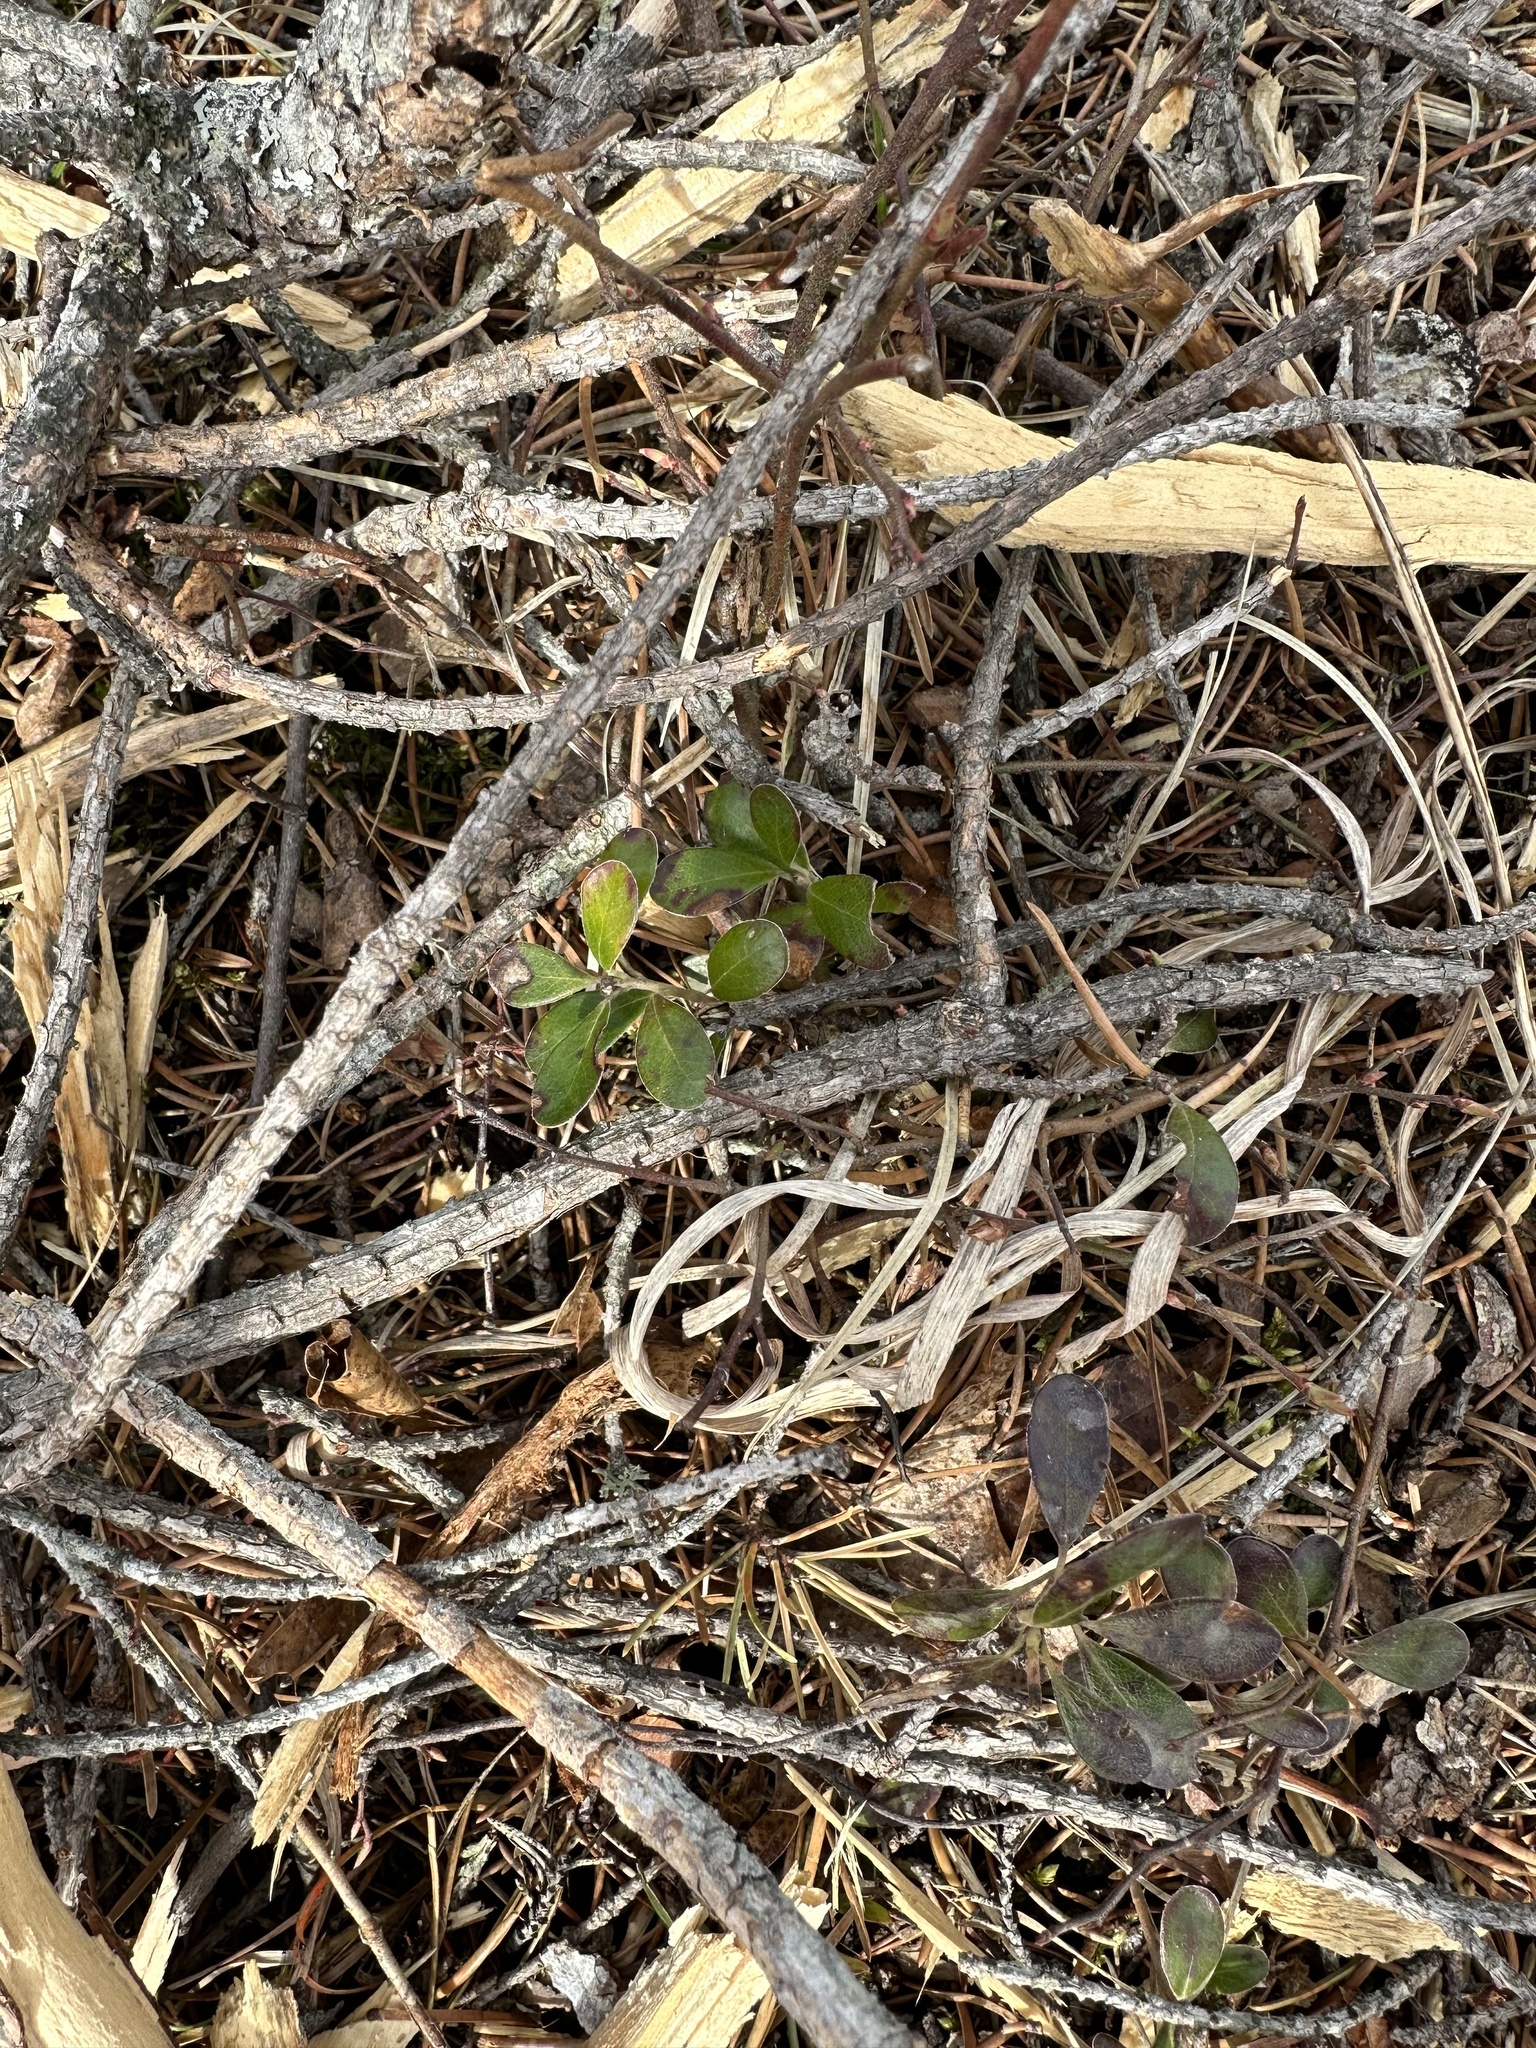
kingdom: Plantae
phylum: Tracheophyta
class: Magnoliopsida
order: Ericales
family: Ericaceae
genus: Arctostaphylos
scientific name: Arctostaphylos uva-ursi
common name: Bearberry
